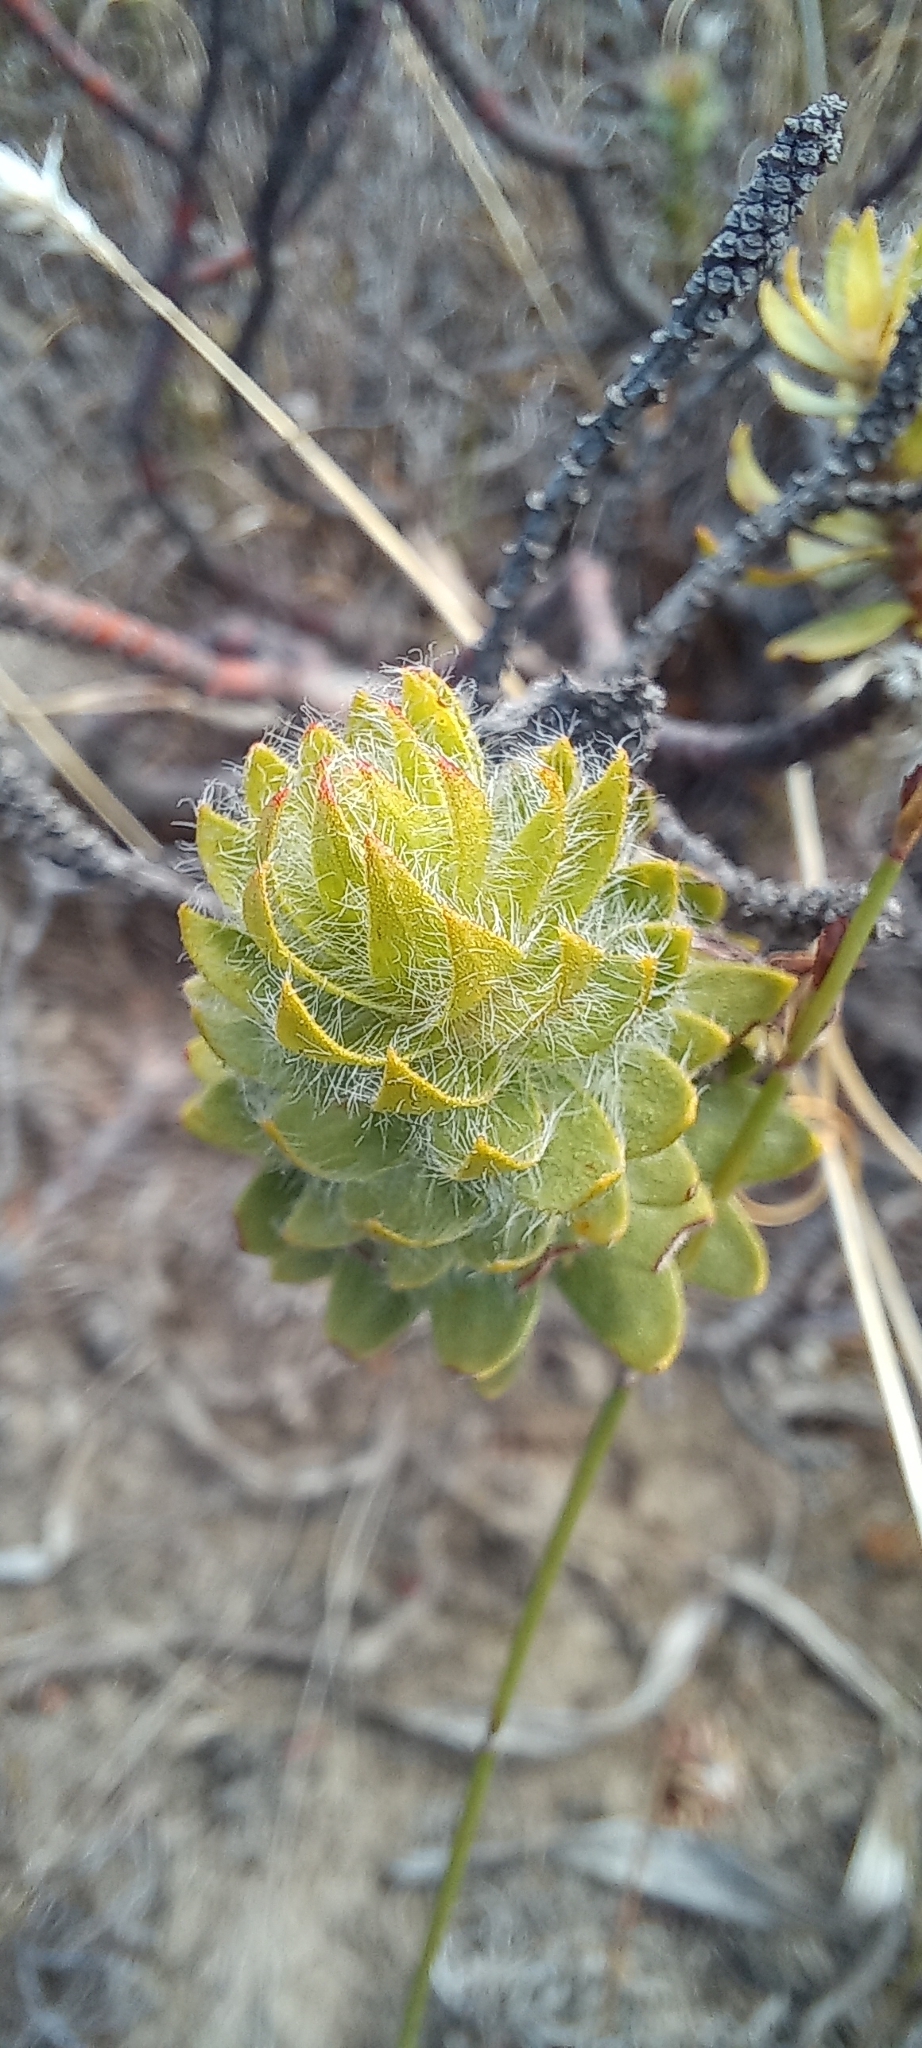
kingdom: Plantae
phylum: Tracheophyta
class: Magnoliopsida
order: Malvales
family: Thymelaeaceae
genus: Gnidia
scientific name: Gnidia ornata
